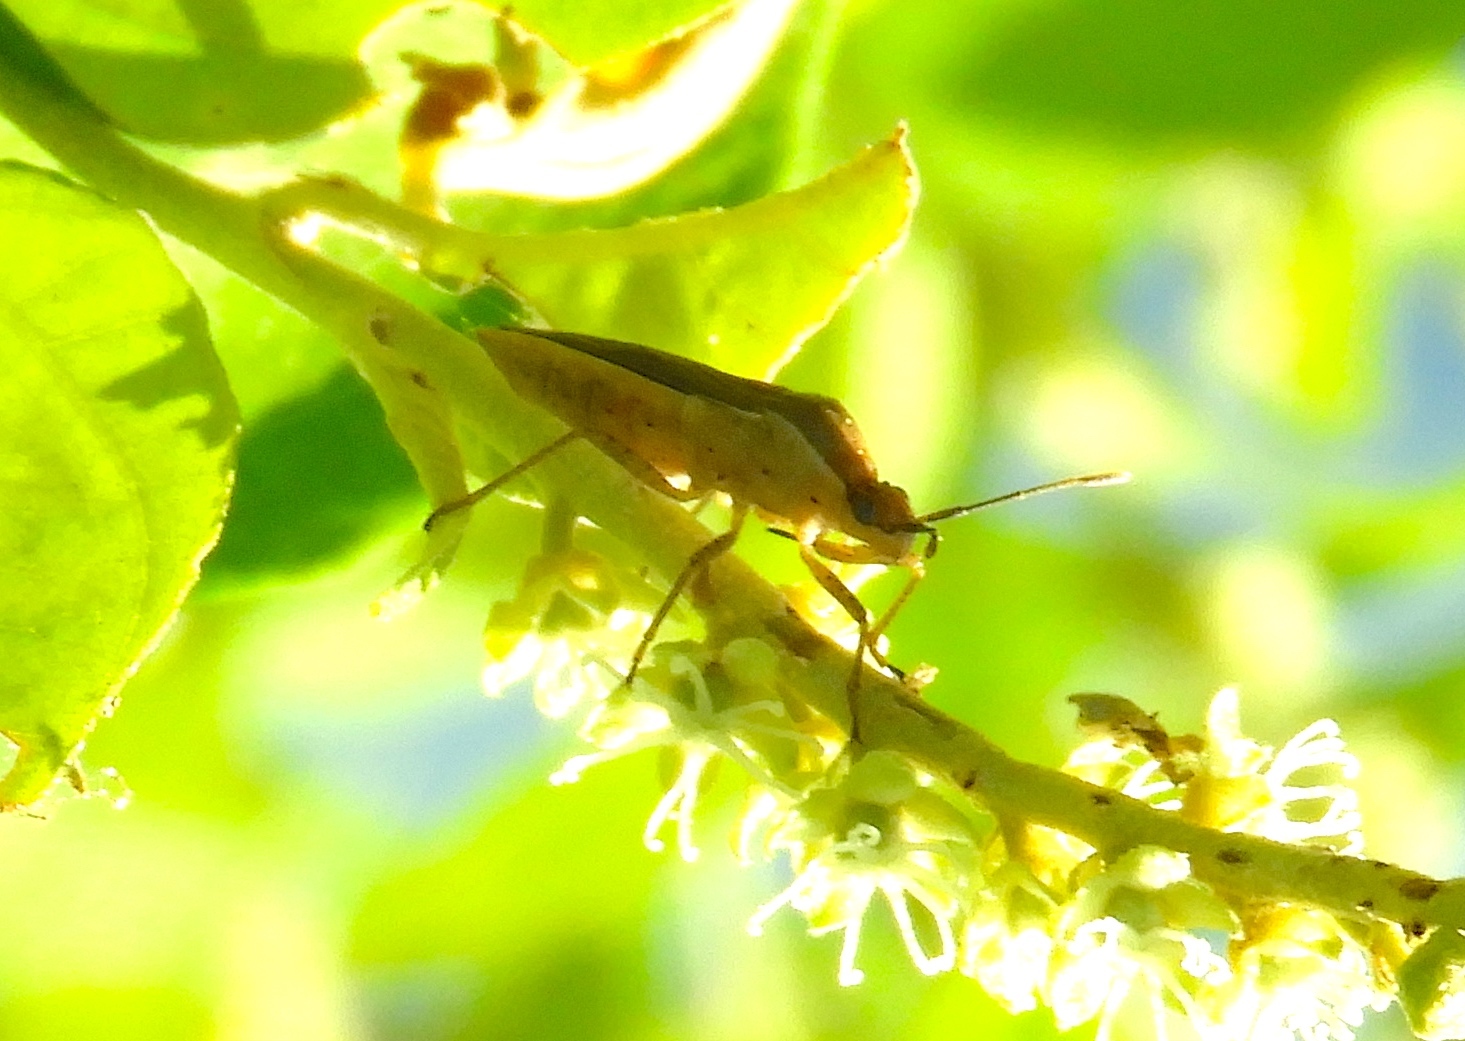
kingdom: Animalia
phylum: Arthropoda
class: Insecta
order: Hemiptera
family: Coreidae
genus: Catorhintha
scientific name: Catorhintha
